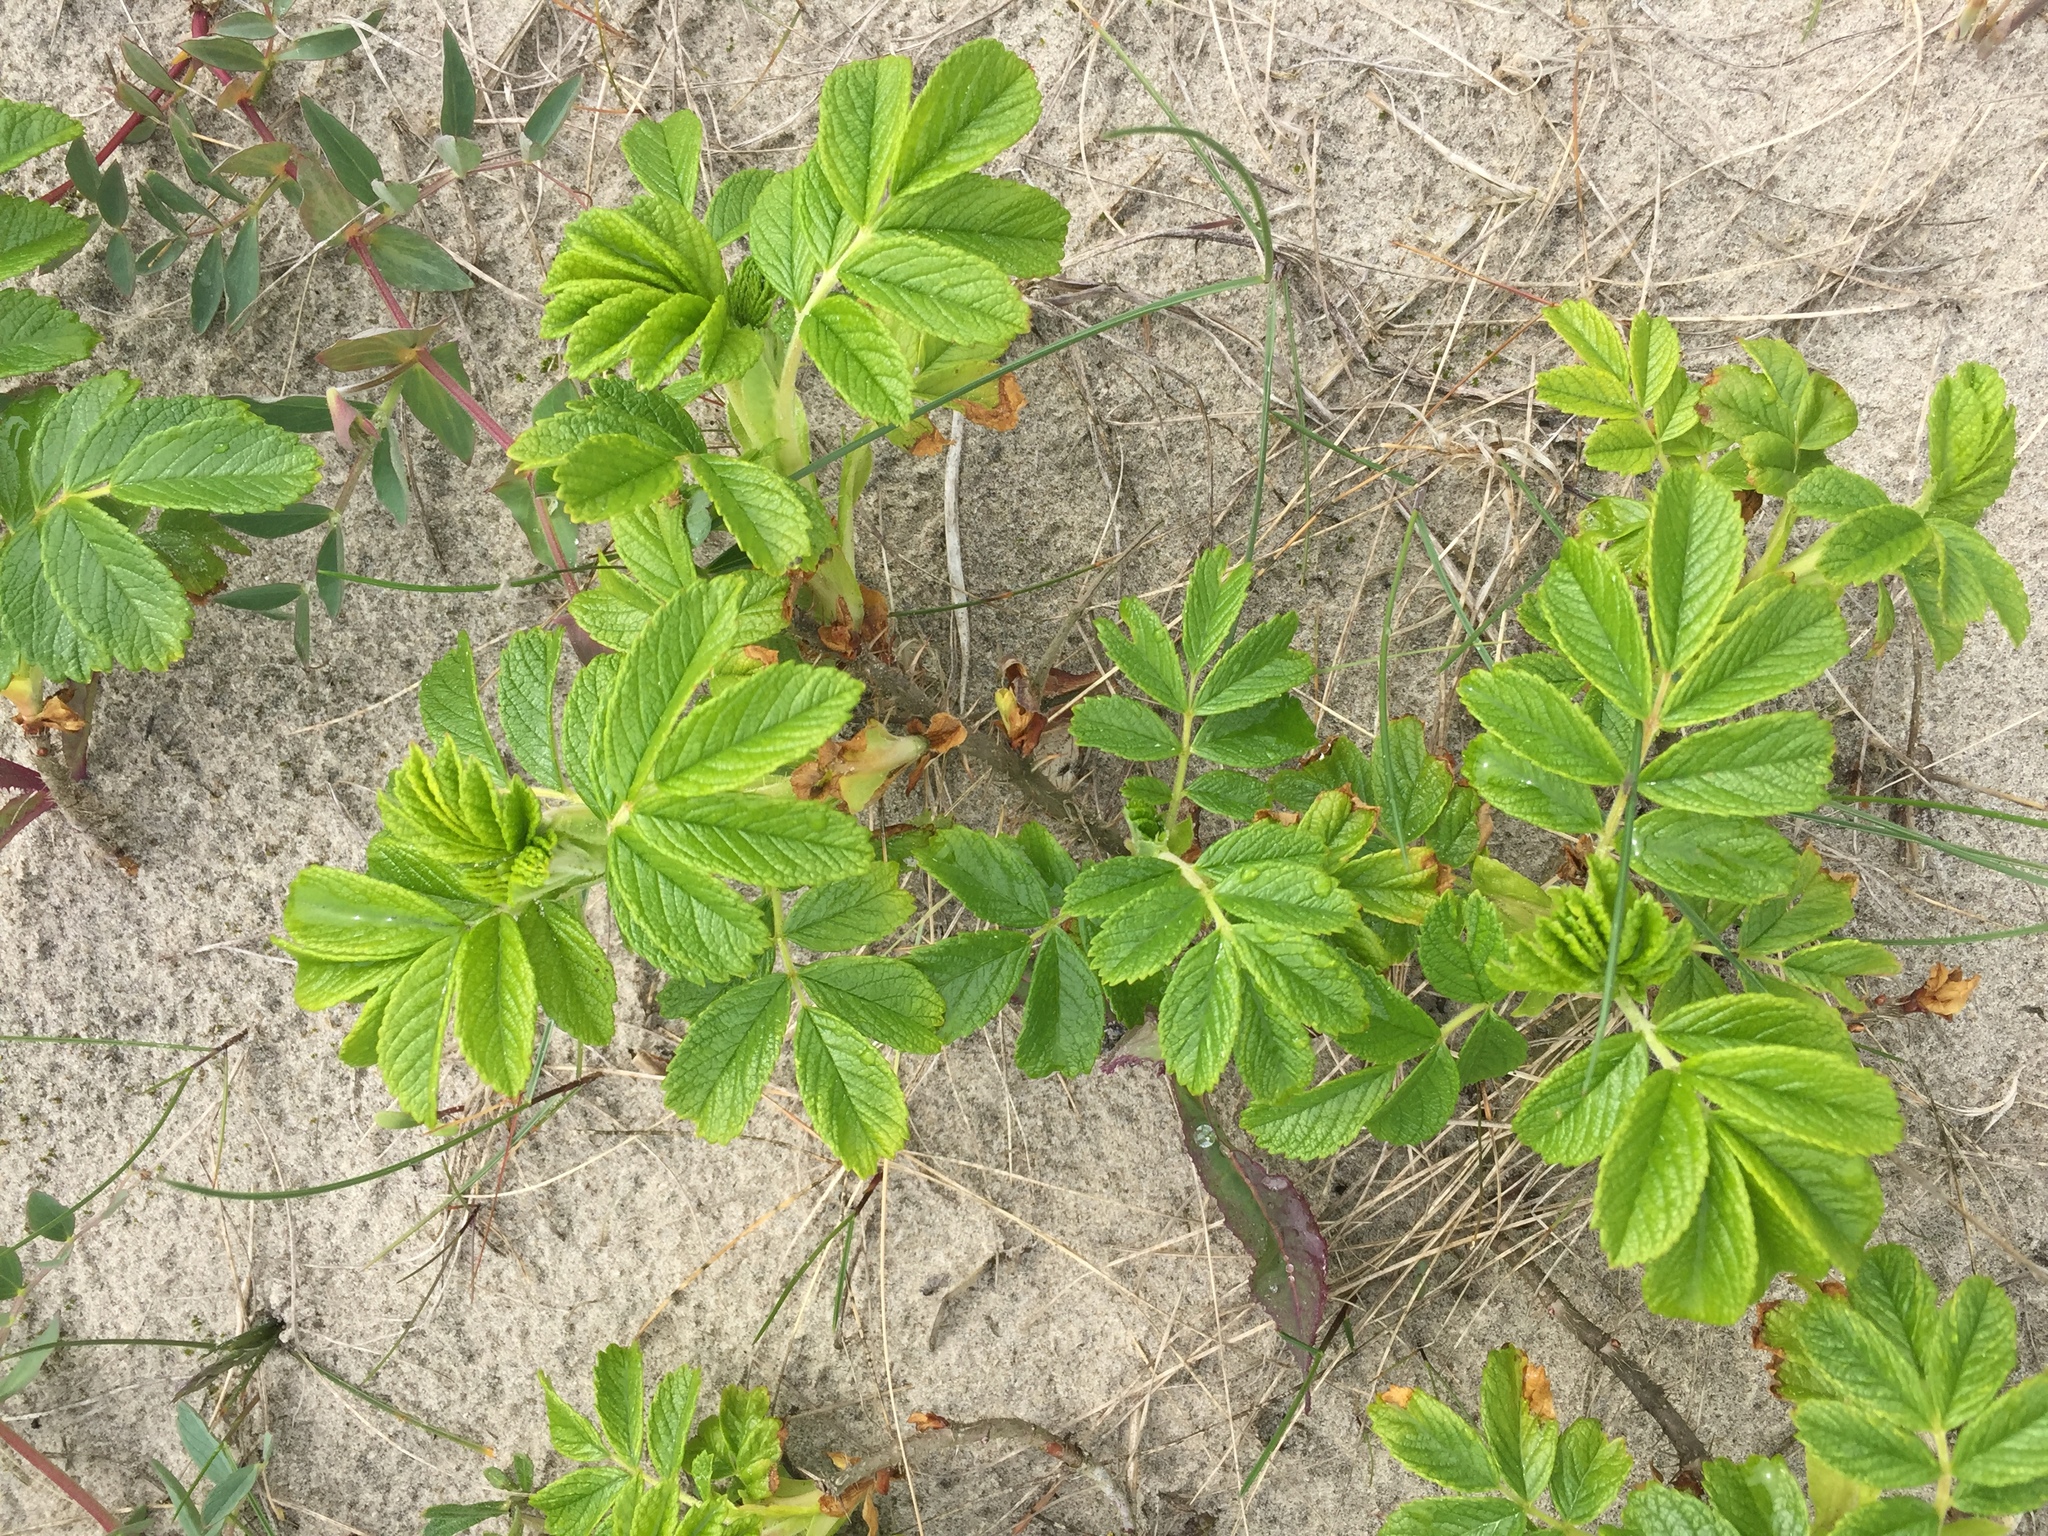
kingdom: Plantae
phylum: Tracheophyta
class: Magnoliopsida
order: Rosales
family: Rosaceae
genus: Rosa
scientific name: Rosa rugosa
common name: Japanese rose
